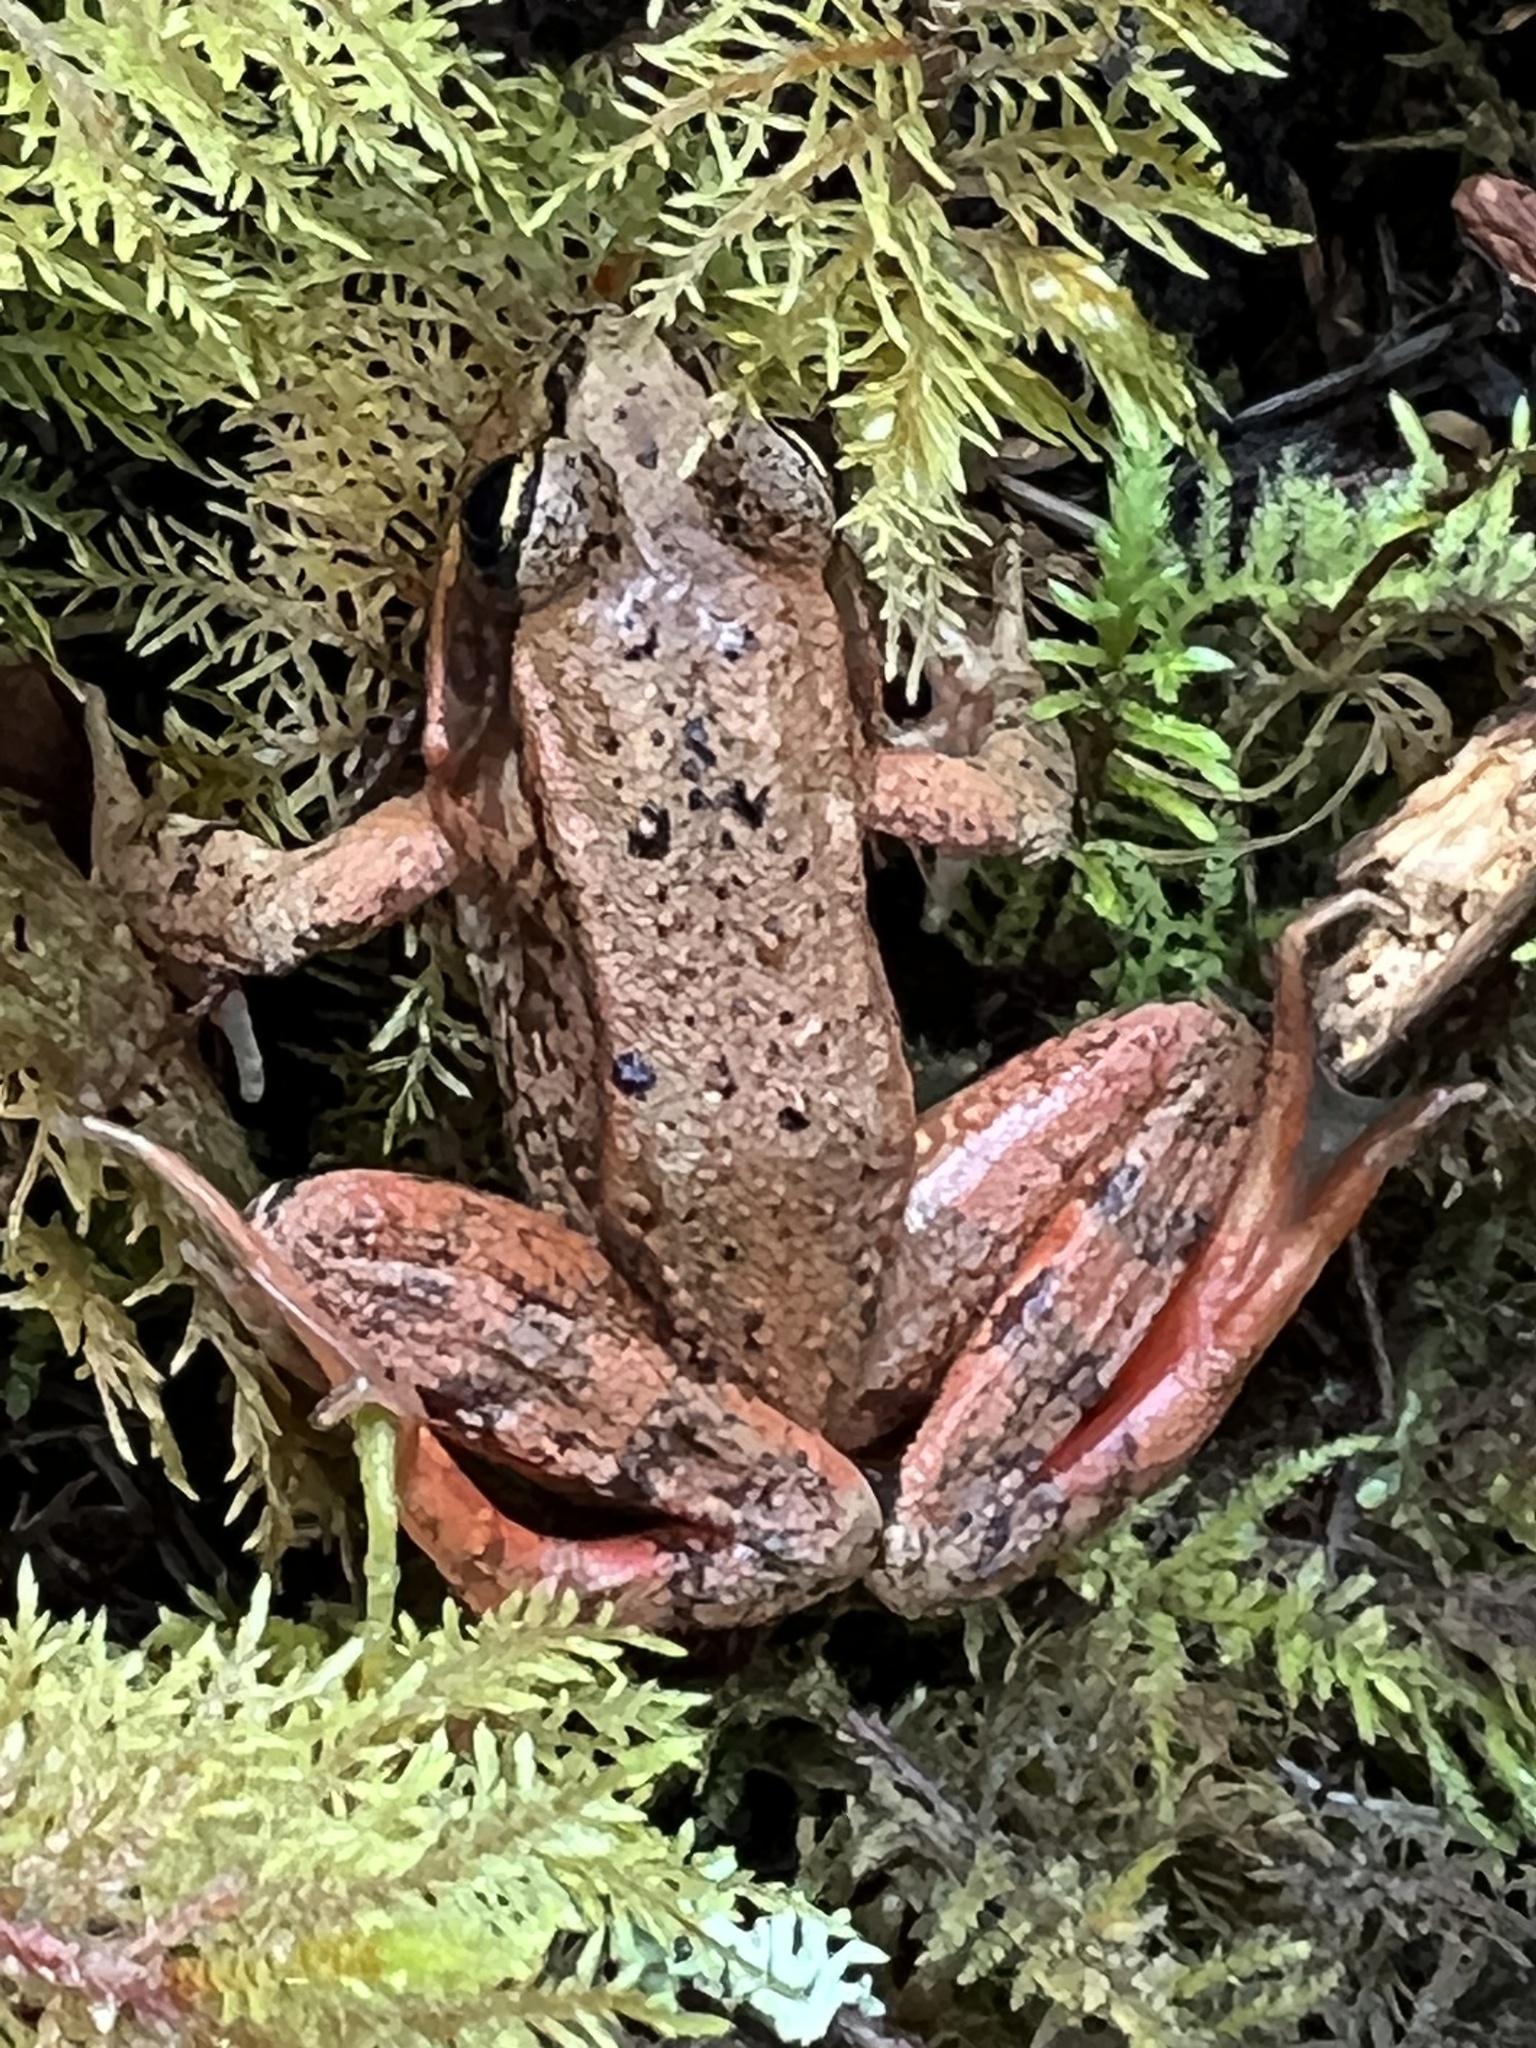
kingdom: Animalia
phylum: Chordata
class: Amphibia
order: Anura
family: Ranidae
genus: Rana
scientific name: Rana aurora
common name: Red-legged frog
